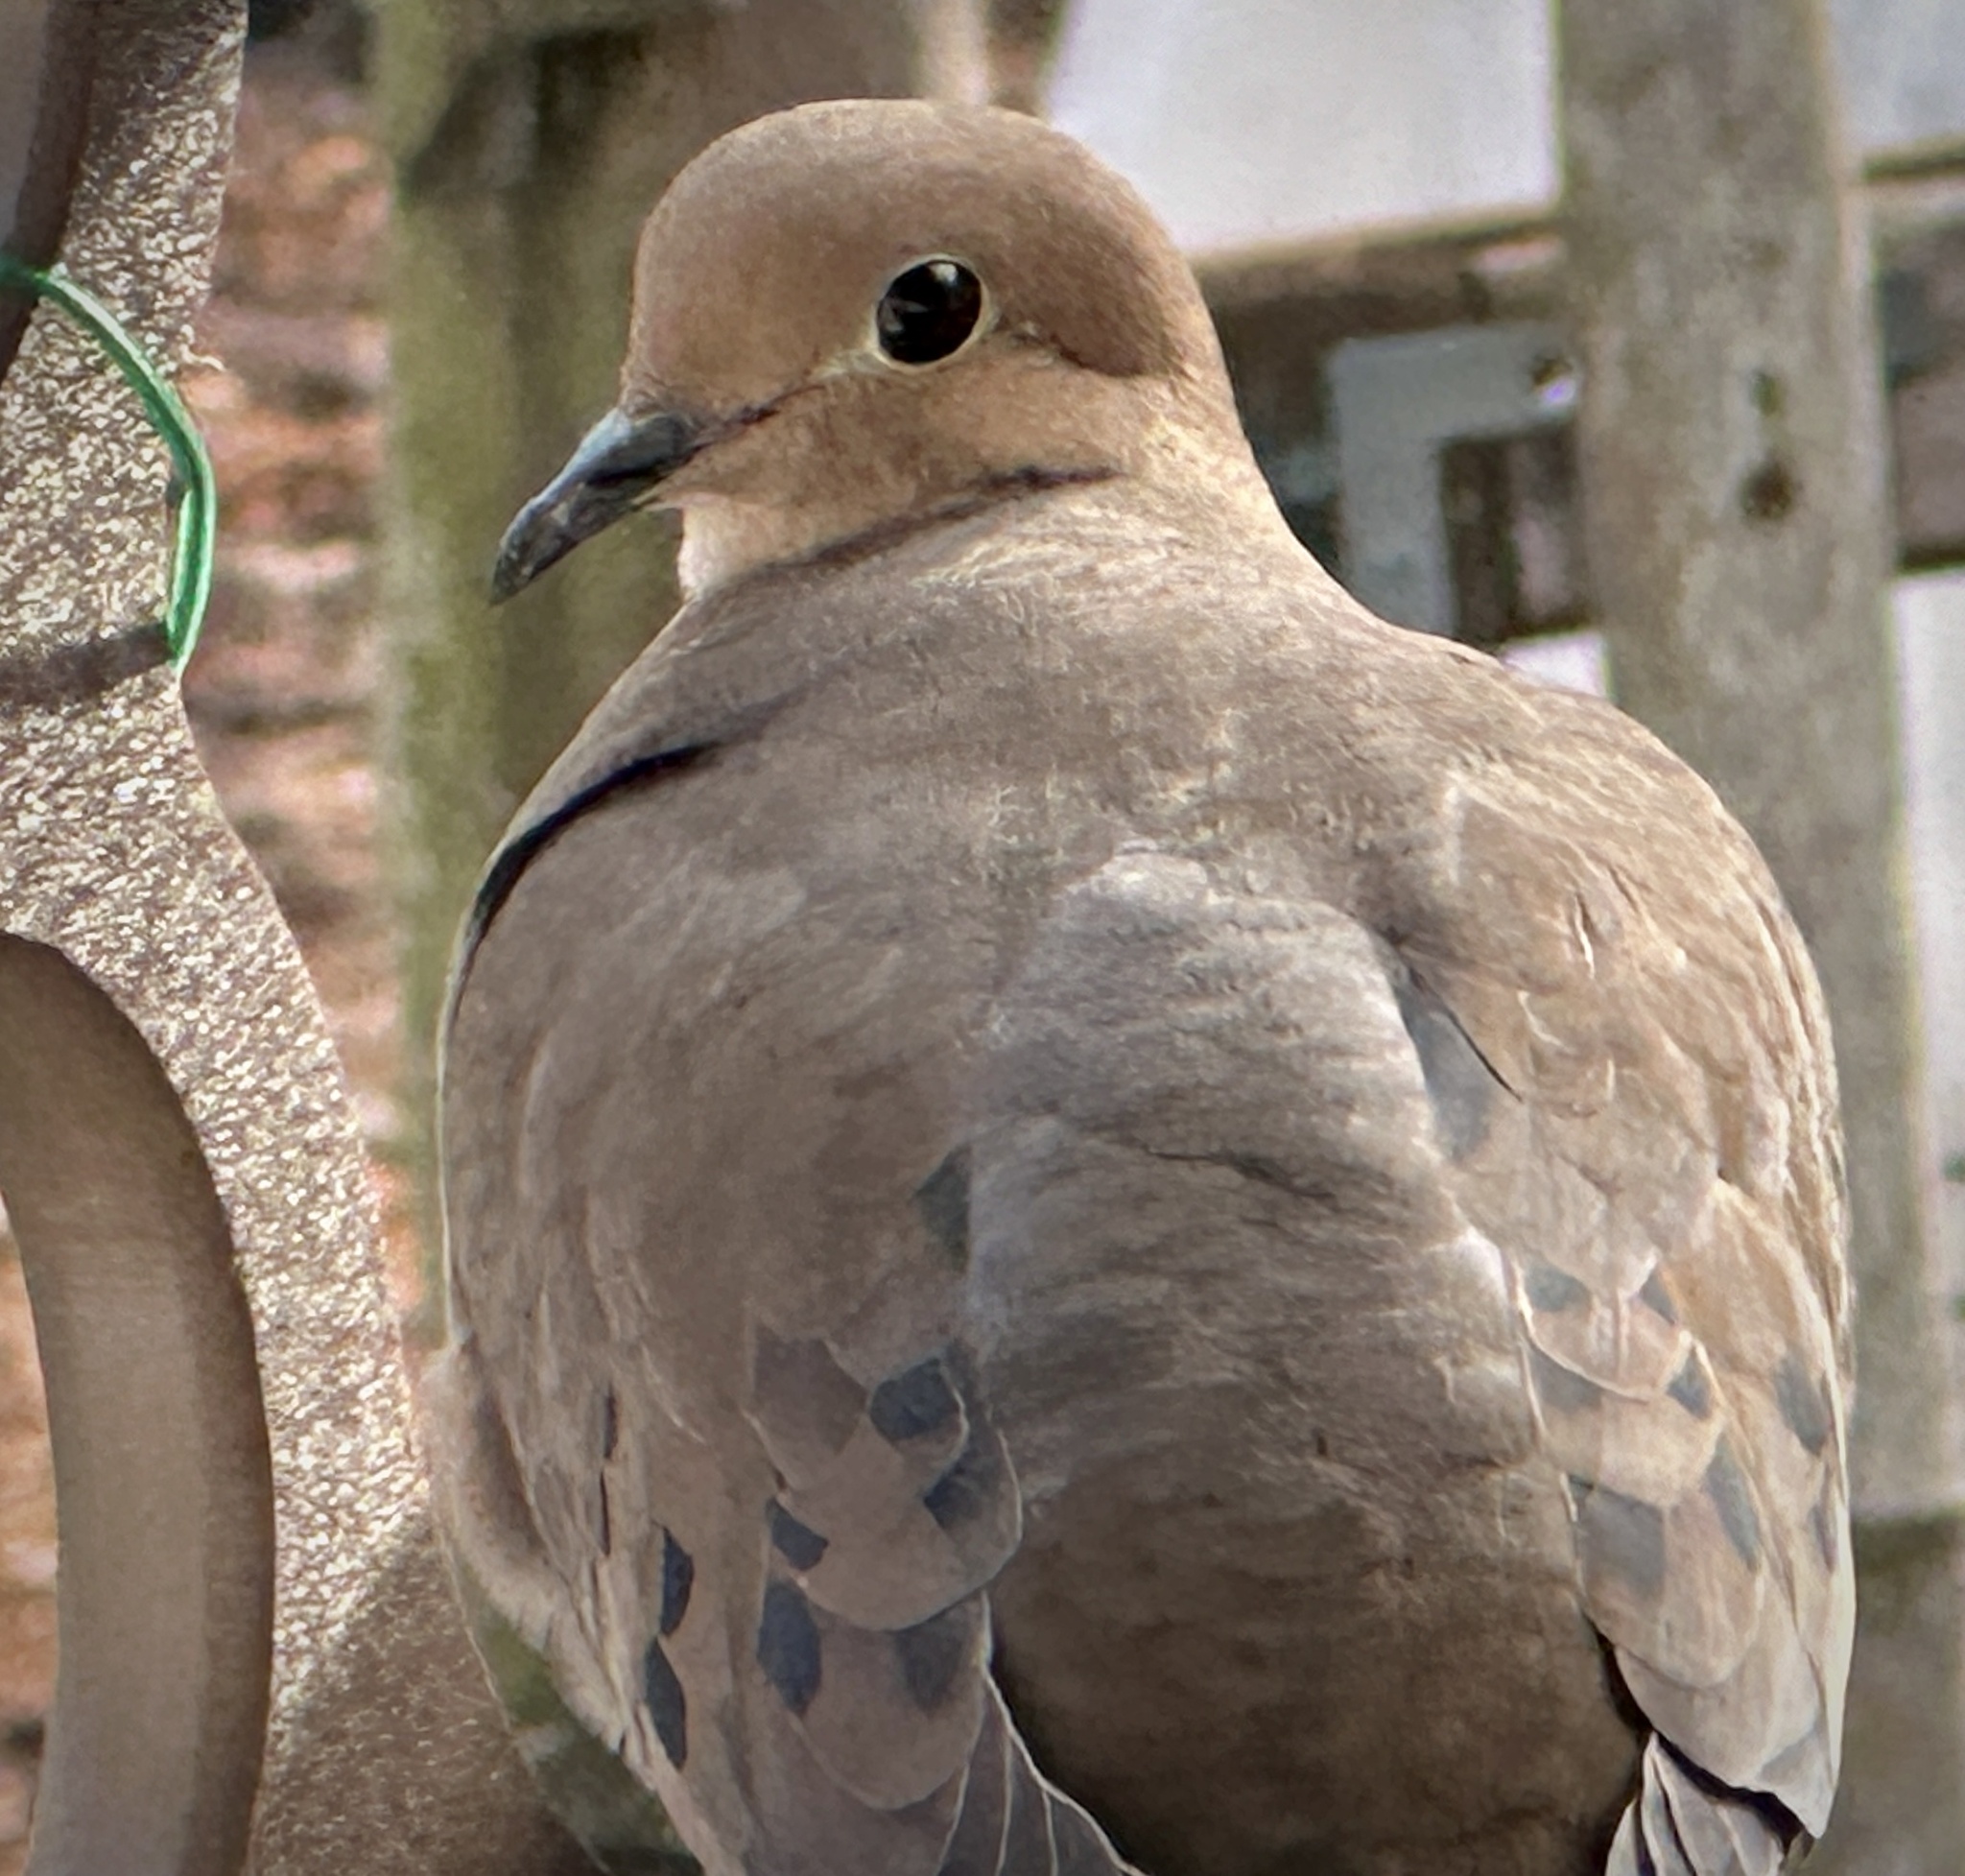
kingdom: Animalia
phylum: Chordata
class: Aves
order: Columbiformes
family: Columbidae
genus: Zenaida
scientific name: Zenaida macroura
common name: Mourning dove
